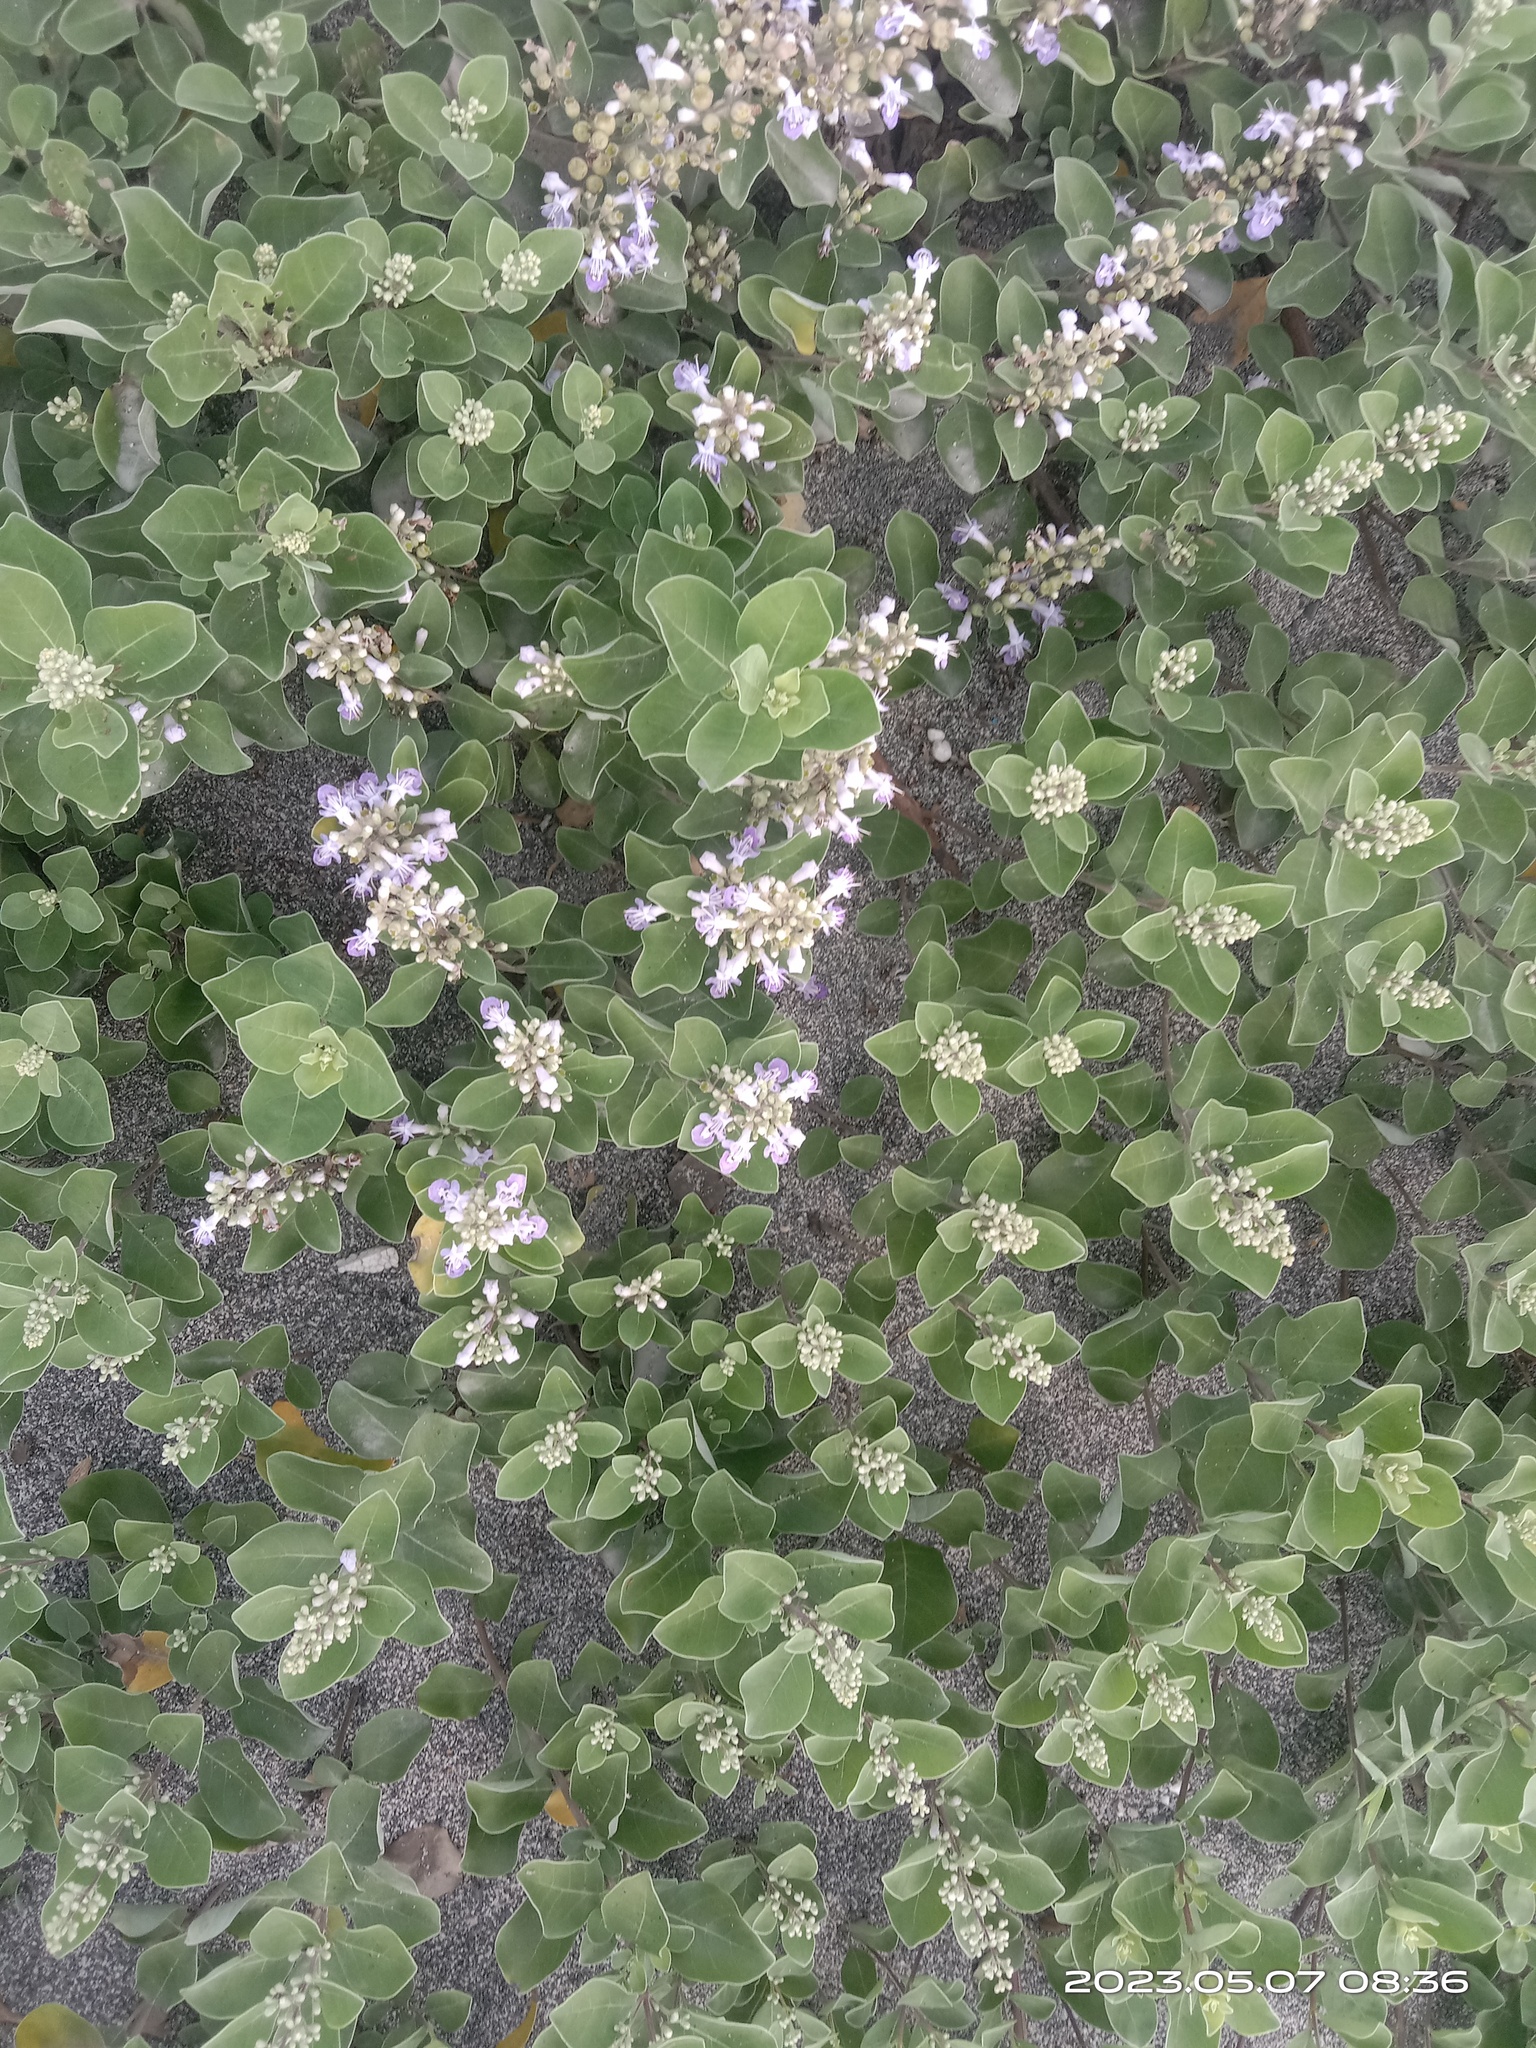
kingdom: Plantae
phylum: Tracheophyta
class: Magnoliopsida
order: Lamiales
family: Lamiaceae
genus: Vitex
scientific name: Vitex rotundifolia
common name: Beach vitex
